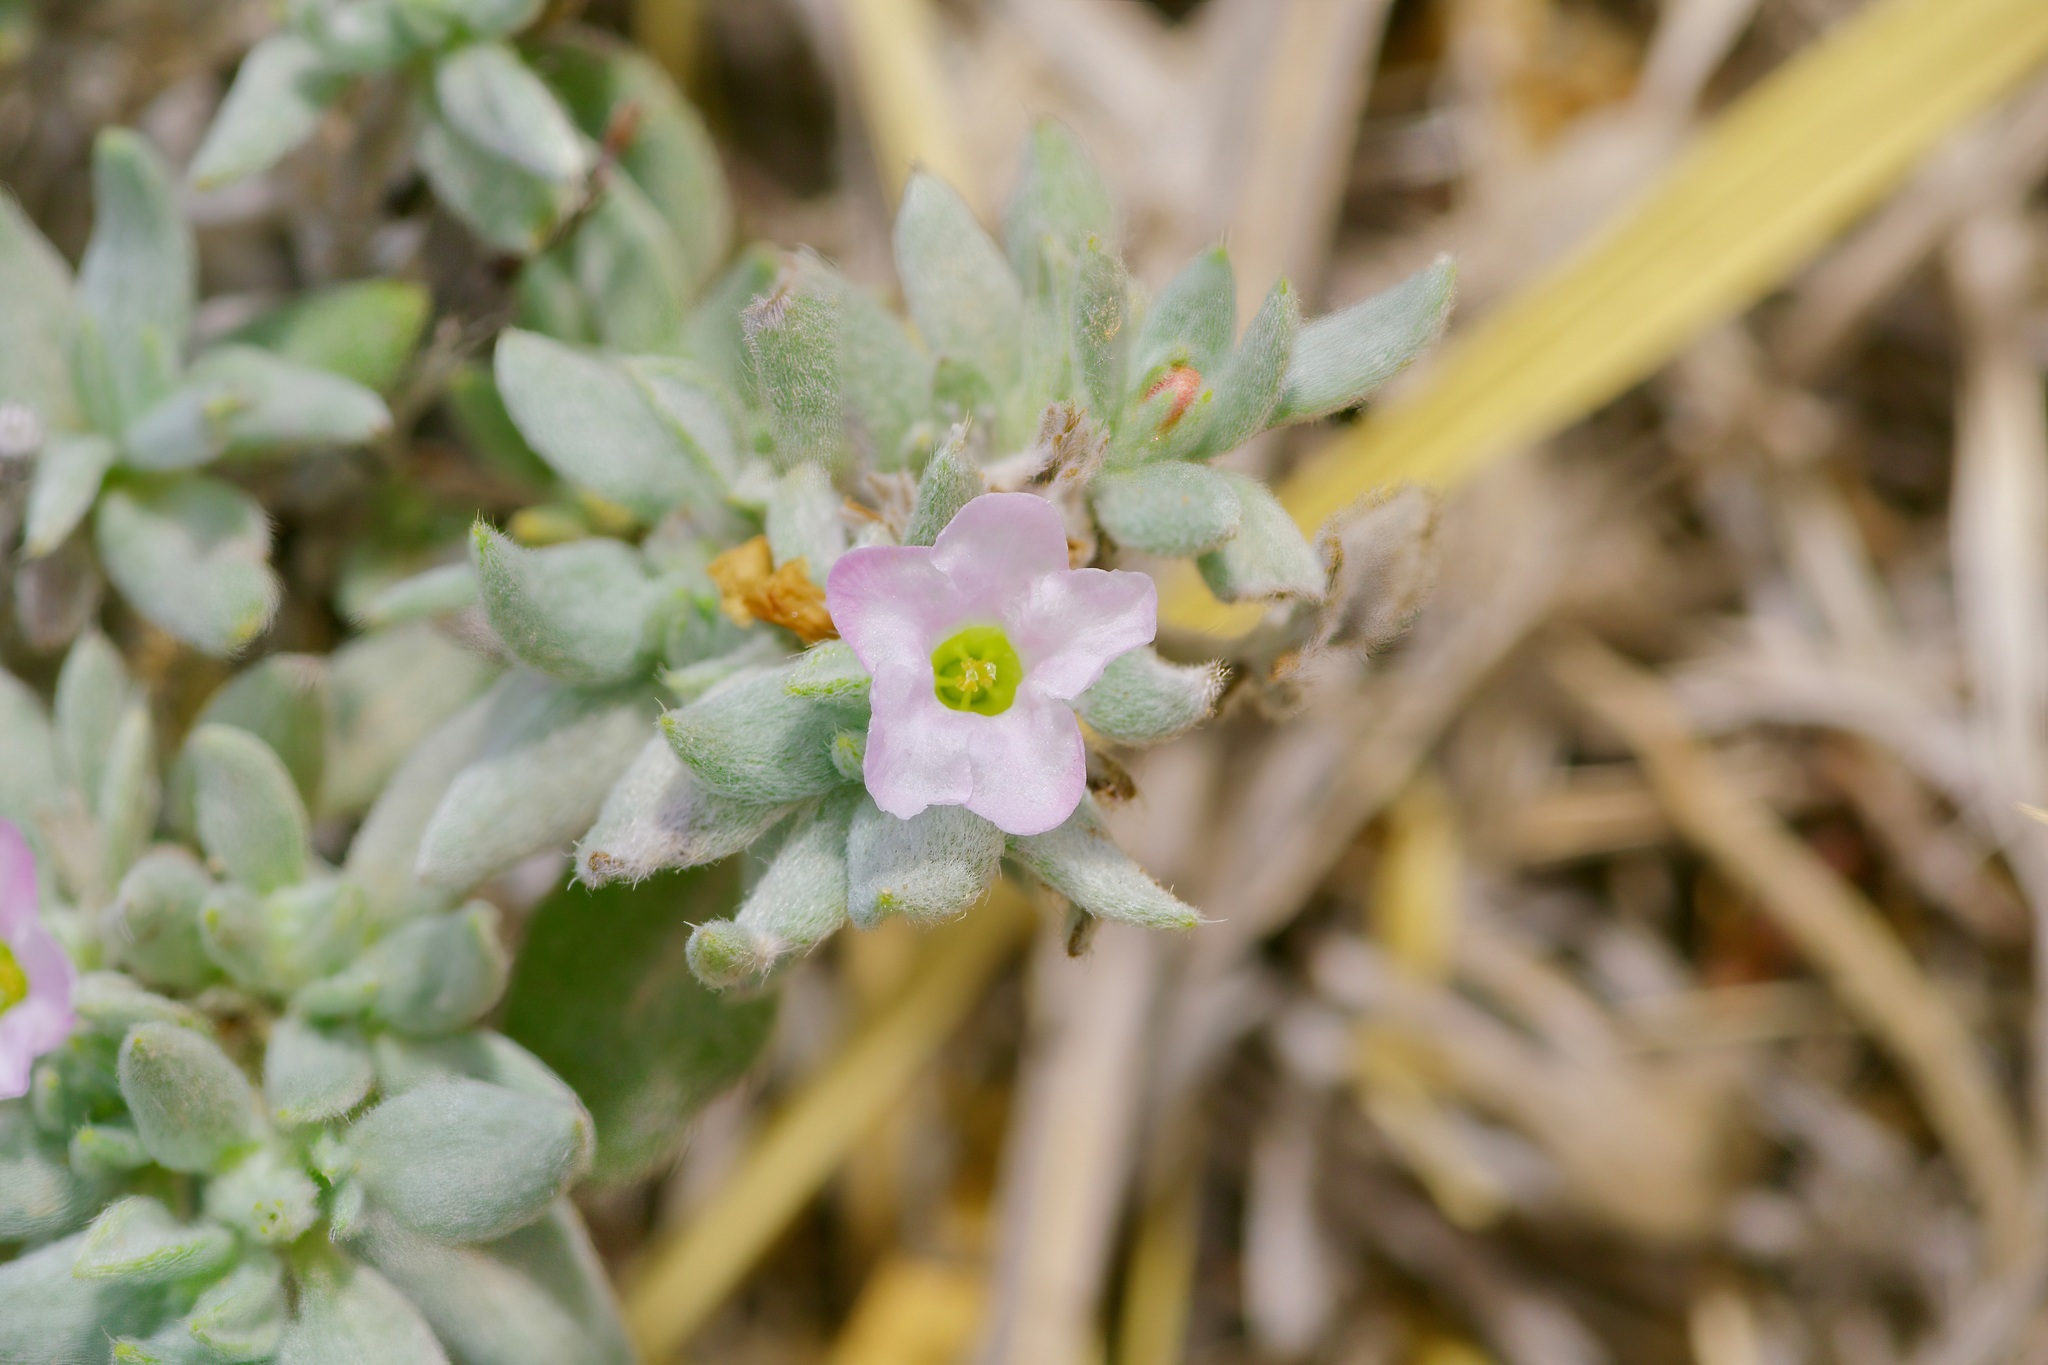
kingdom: Plantae
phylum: Tracheophyta
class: Magnoliopsida
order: Boraginales
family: Ehretiaceae
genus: Tiquilia
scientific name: Tiquilia canescens
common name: Hairy tiquilia
